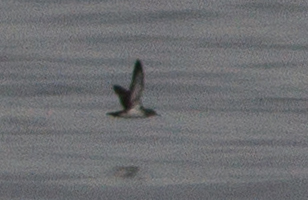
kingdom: Animalia
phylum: Chordata
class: Aves
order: Procellariiformes
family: Procellariidae
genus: Puffinus
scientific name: Puffinus opisthomelas
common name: Black-vented shearwater
